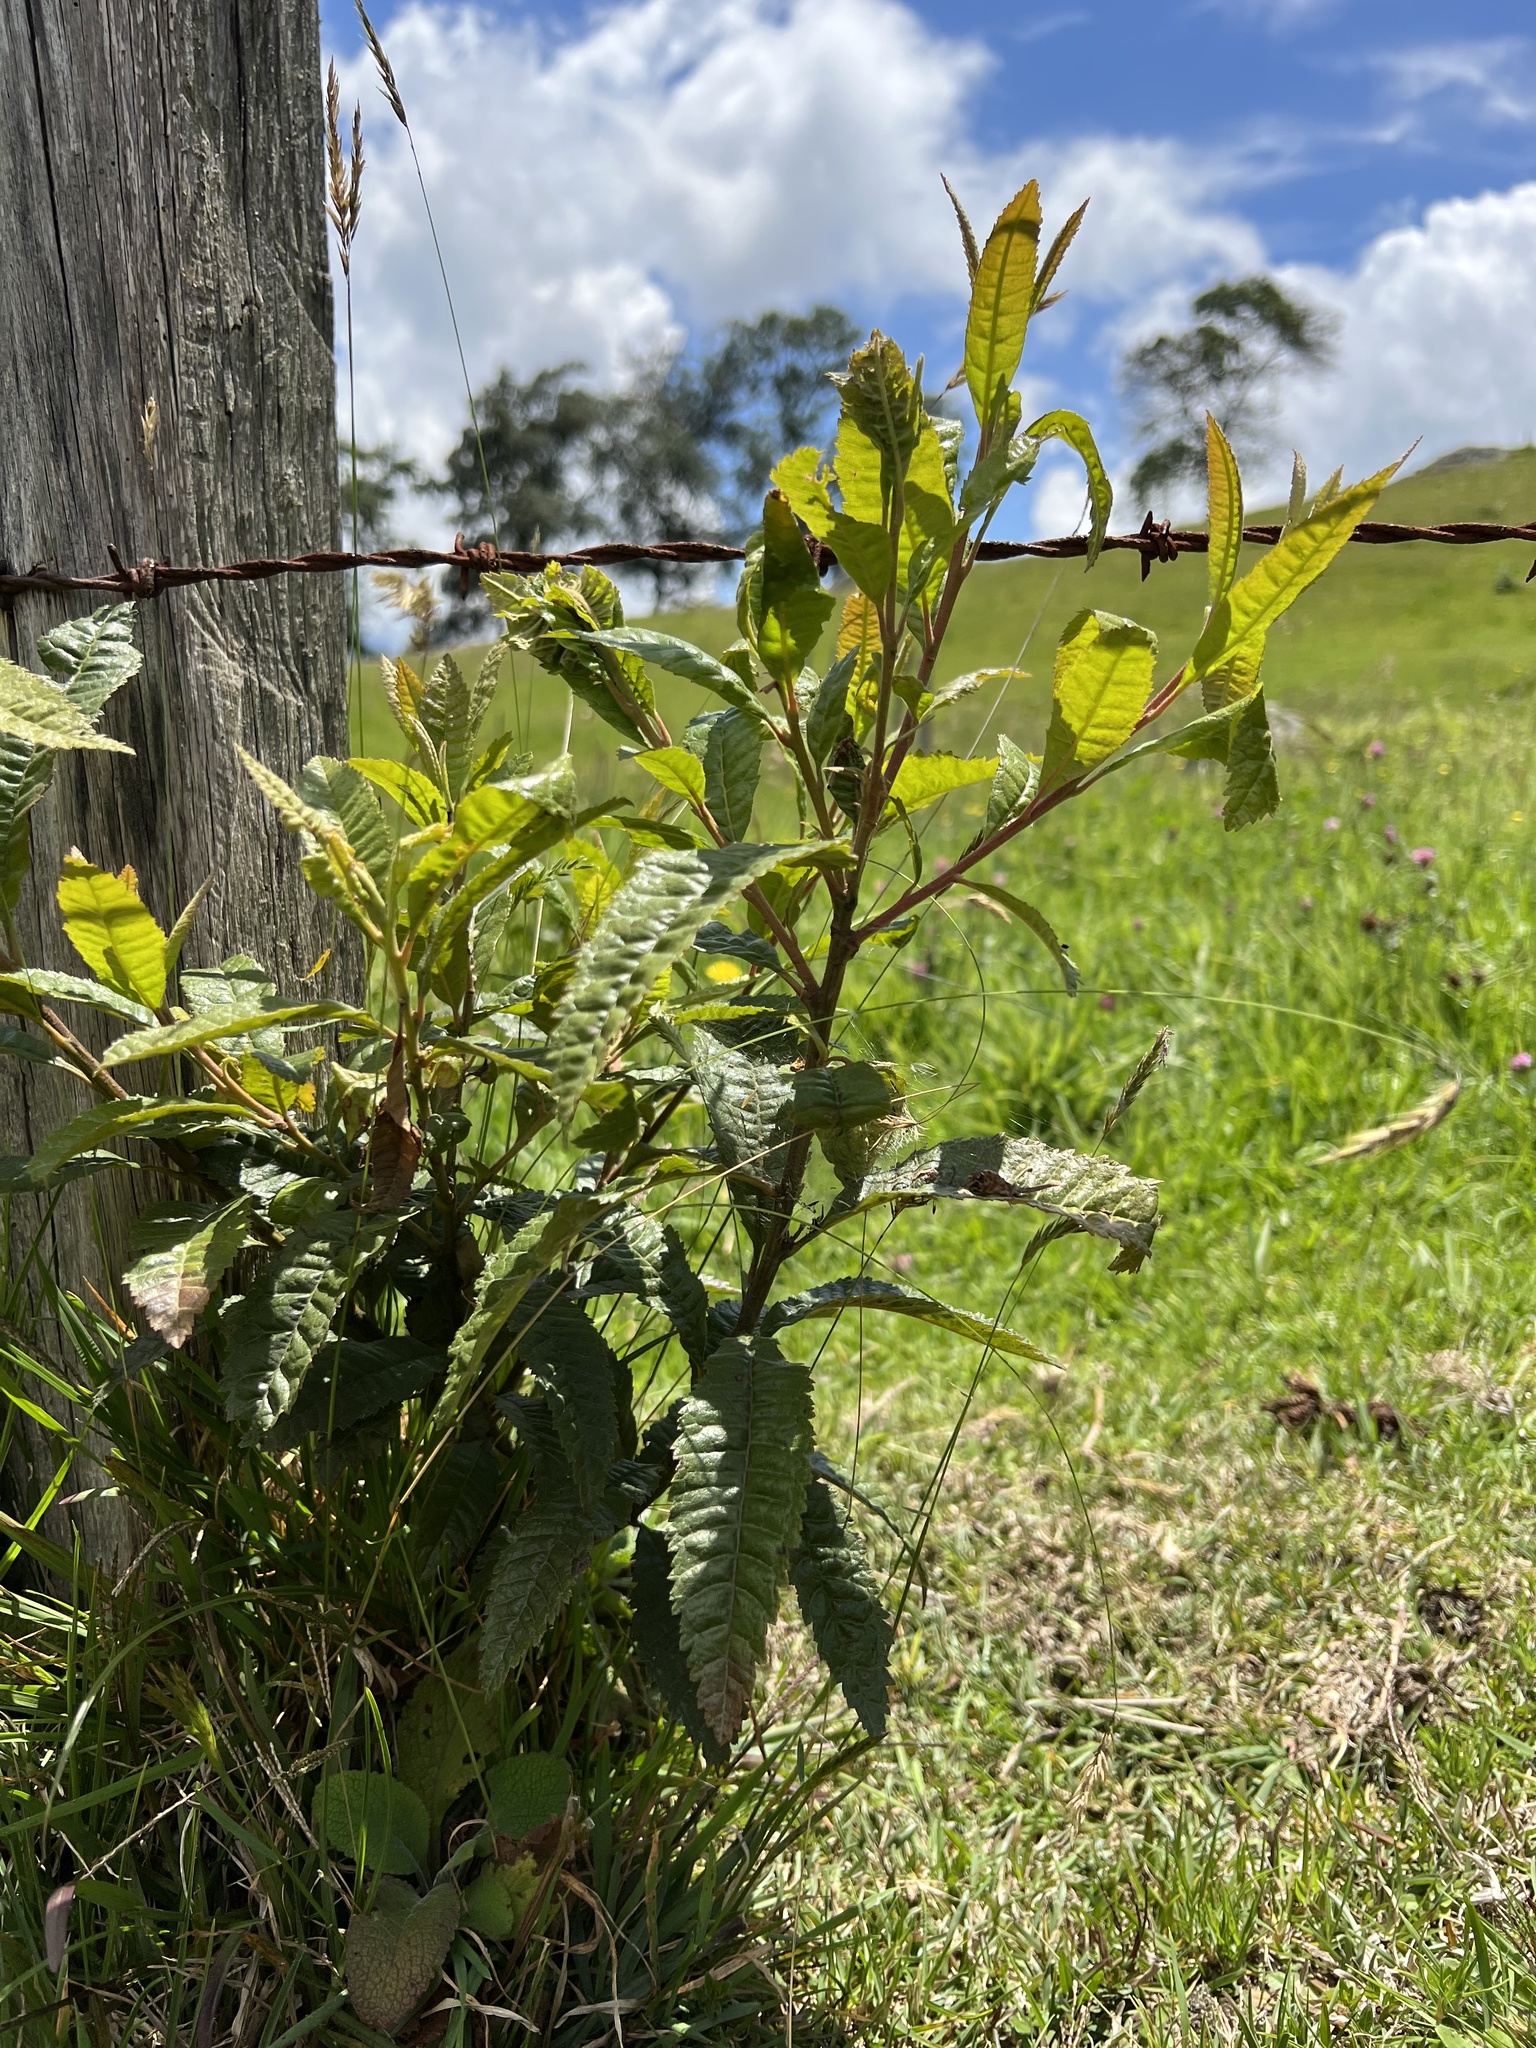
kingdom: Plantae
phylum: Tracheophyta
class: Magnoliopsida
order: Fagales
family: Myricaceae
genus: Morella
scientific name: Morella pubescens
